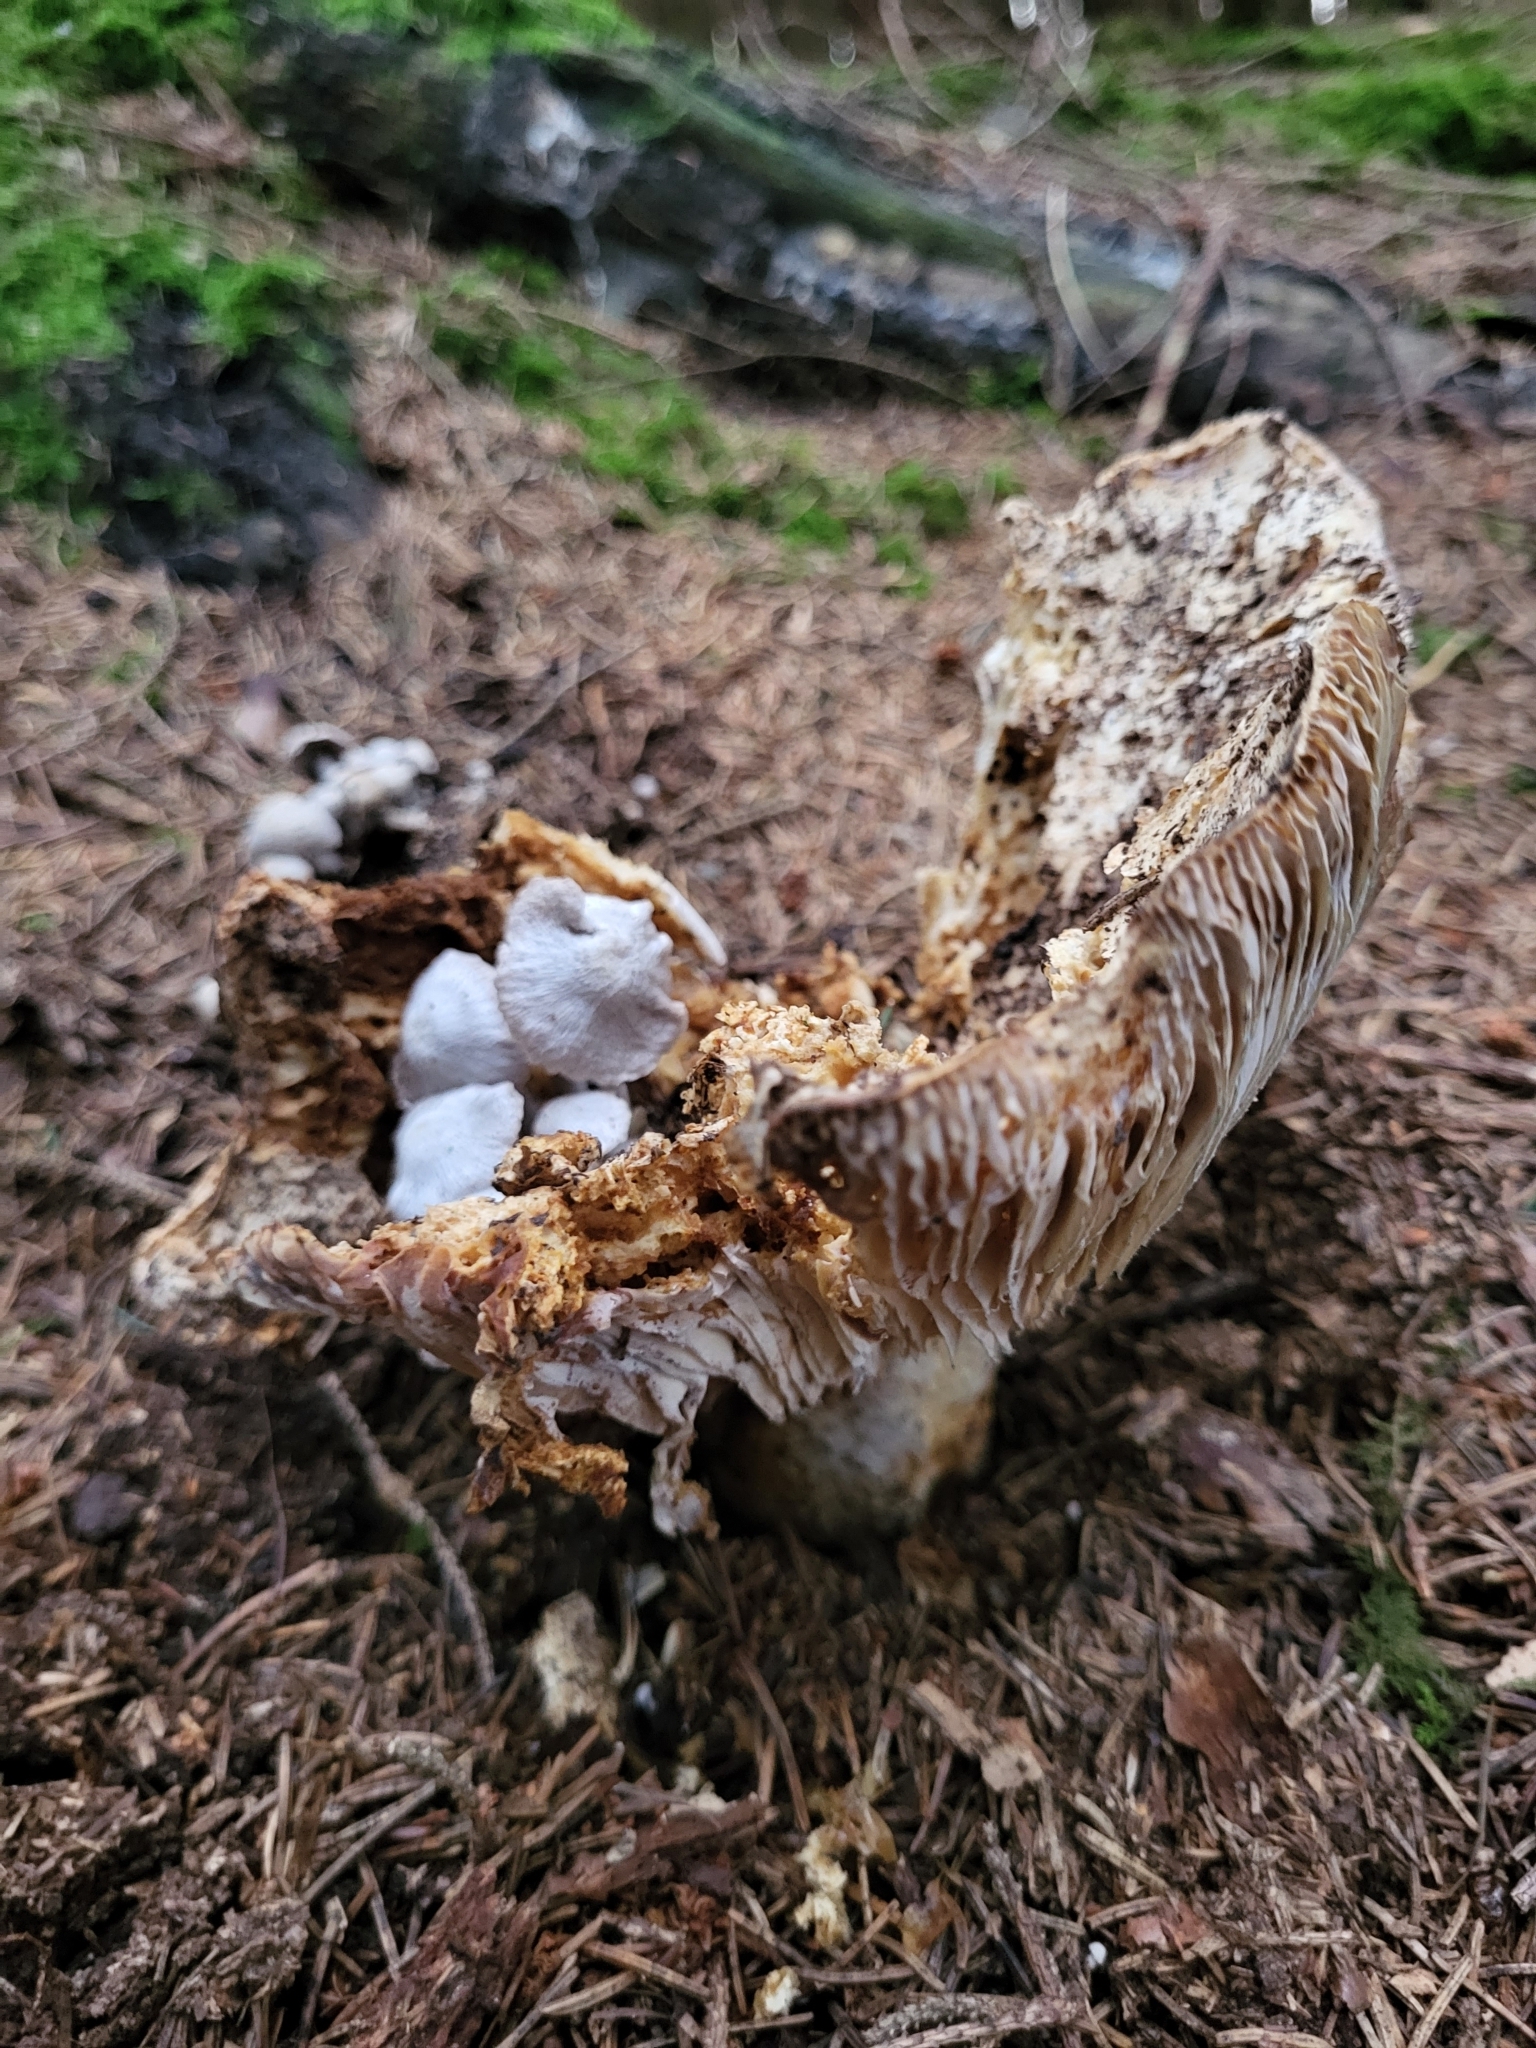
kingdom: Fungi
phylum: Basidiomycota
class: Agaricomycetes
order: Agaricales
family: Lyophyllaceae
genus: Asterophora
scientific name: Asterophora parasitica
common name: Silky piggyback
